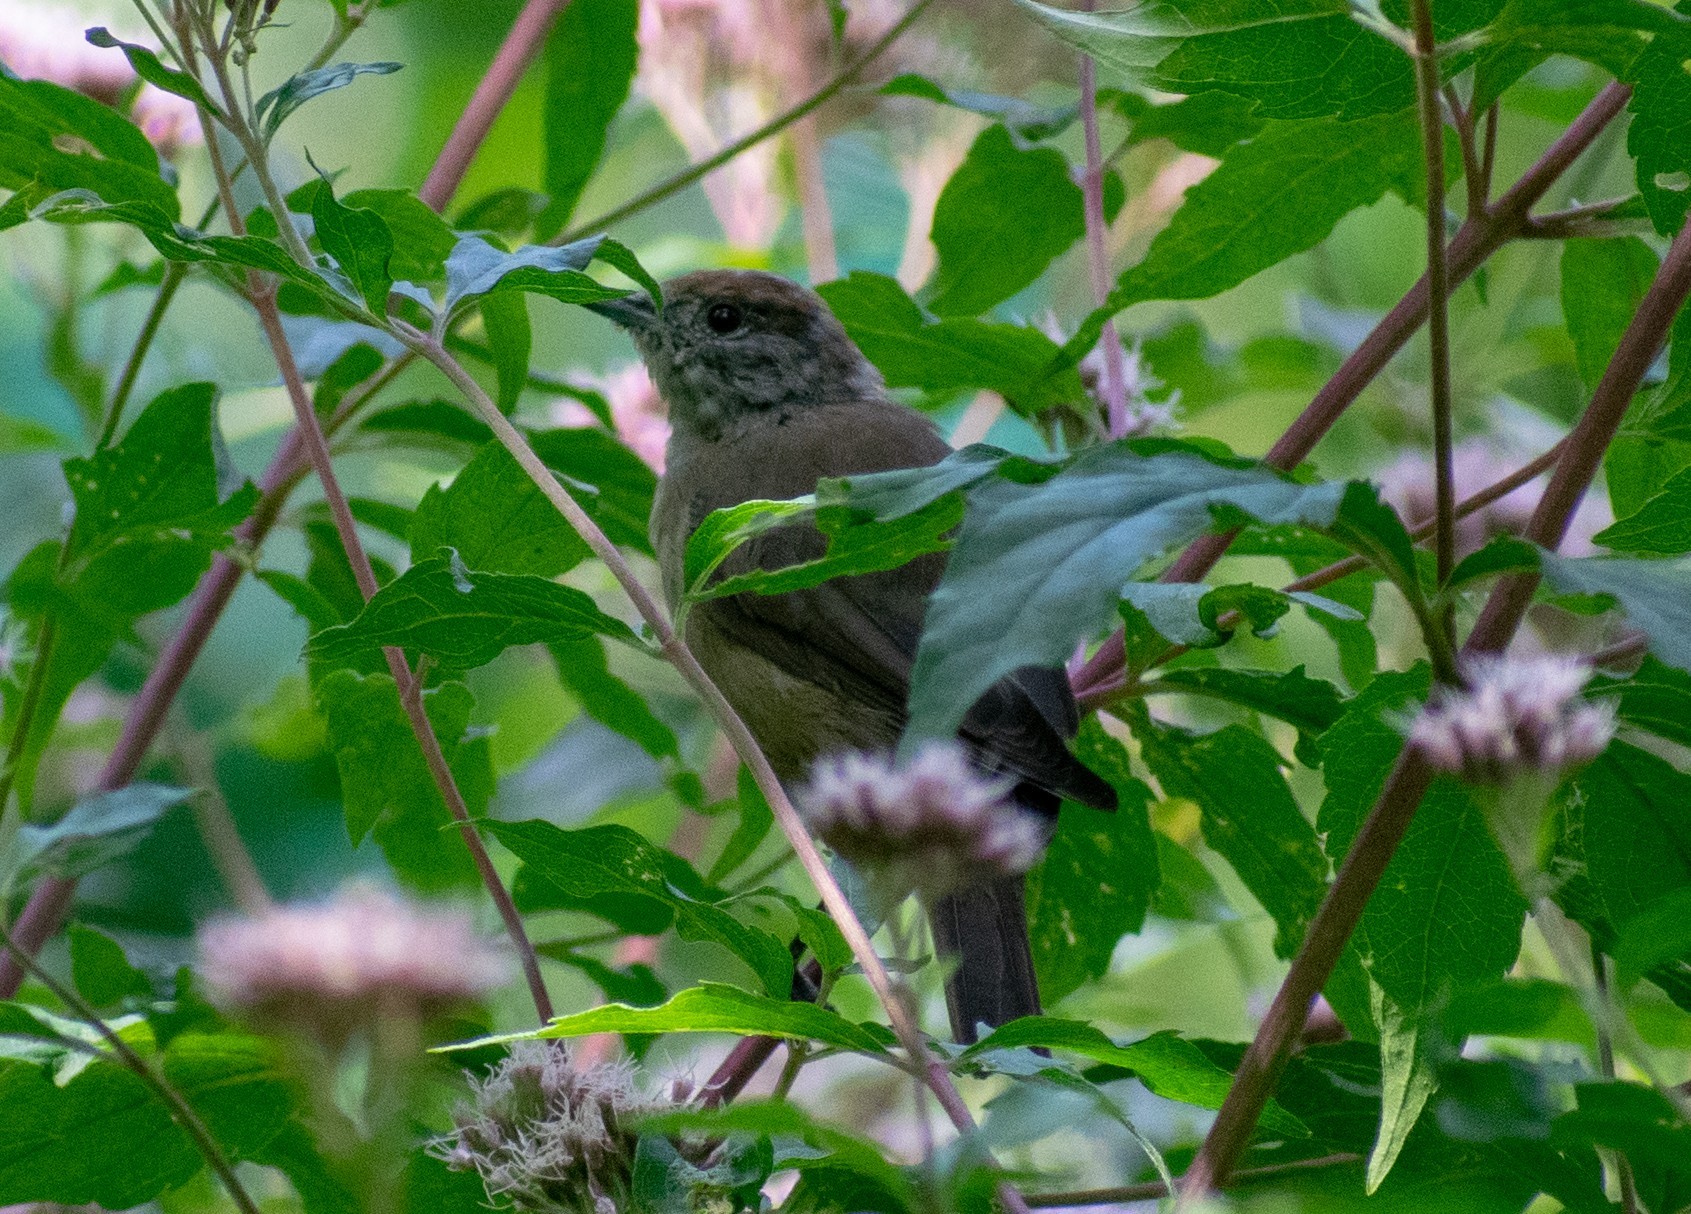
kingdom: Animalia
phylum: Chordata
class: Aves
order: Passeriformes
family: Sylviidae
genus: Sylvia
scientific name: Sylvia atricapilla
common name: Eurasian blackcap
